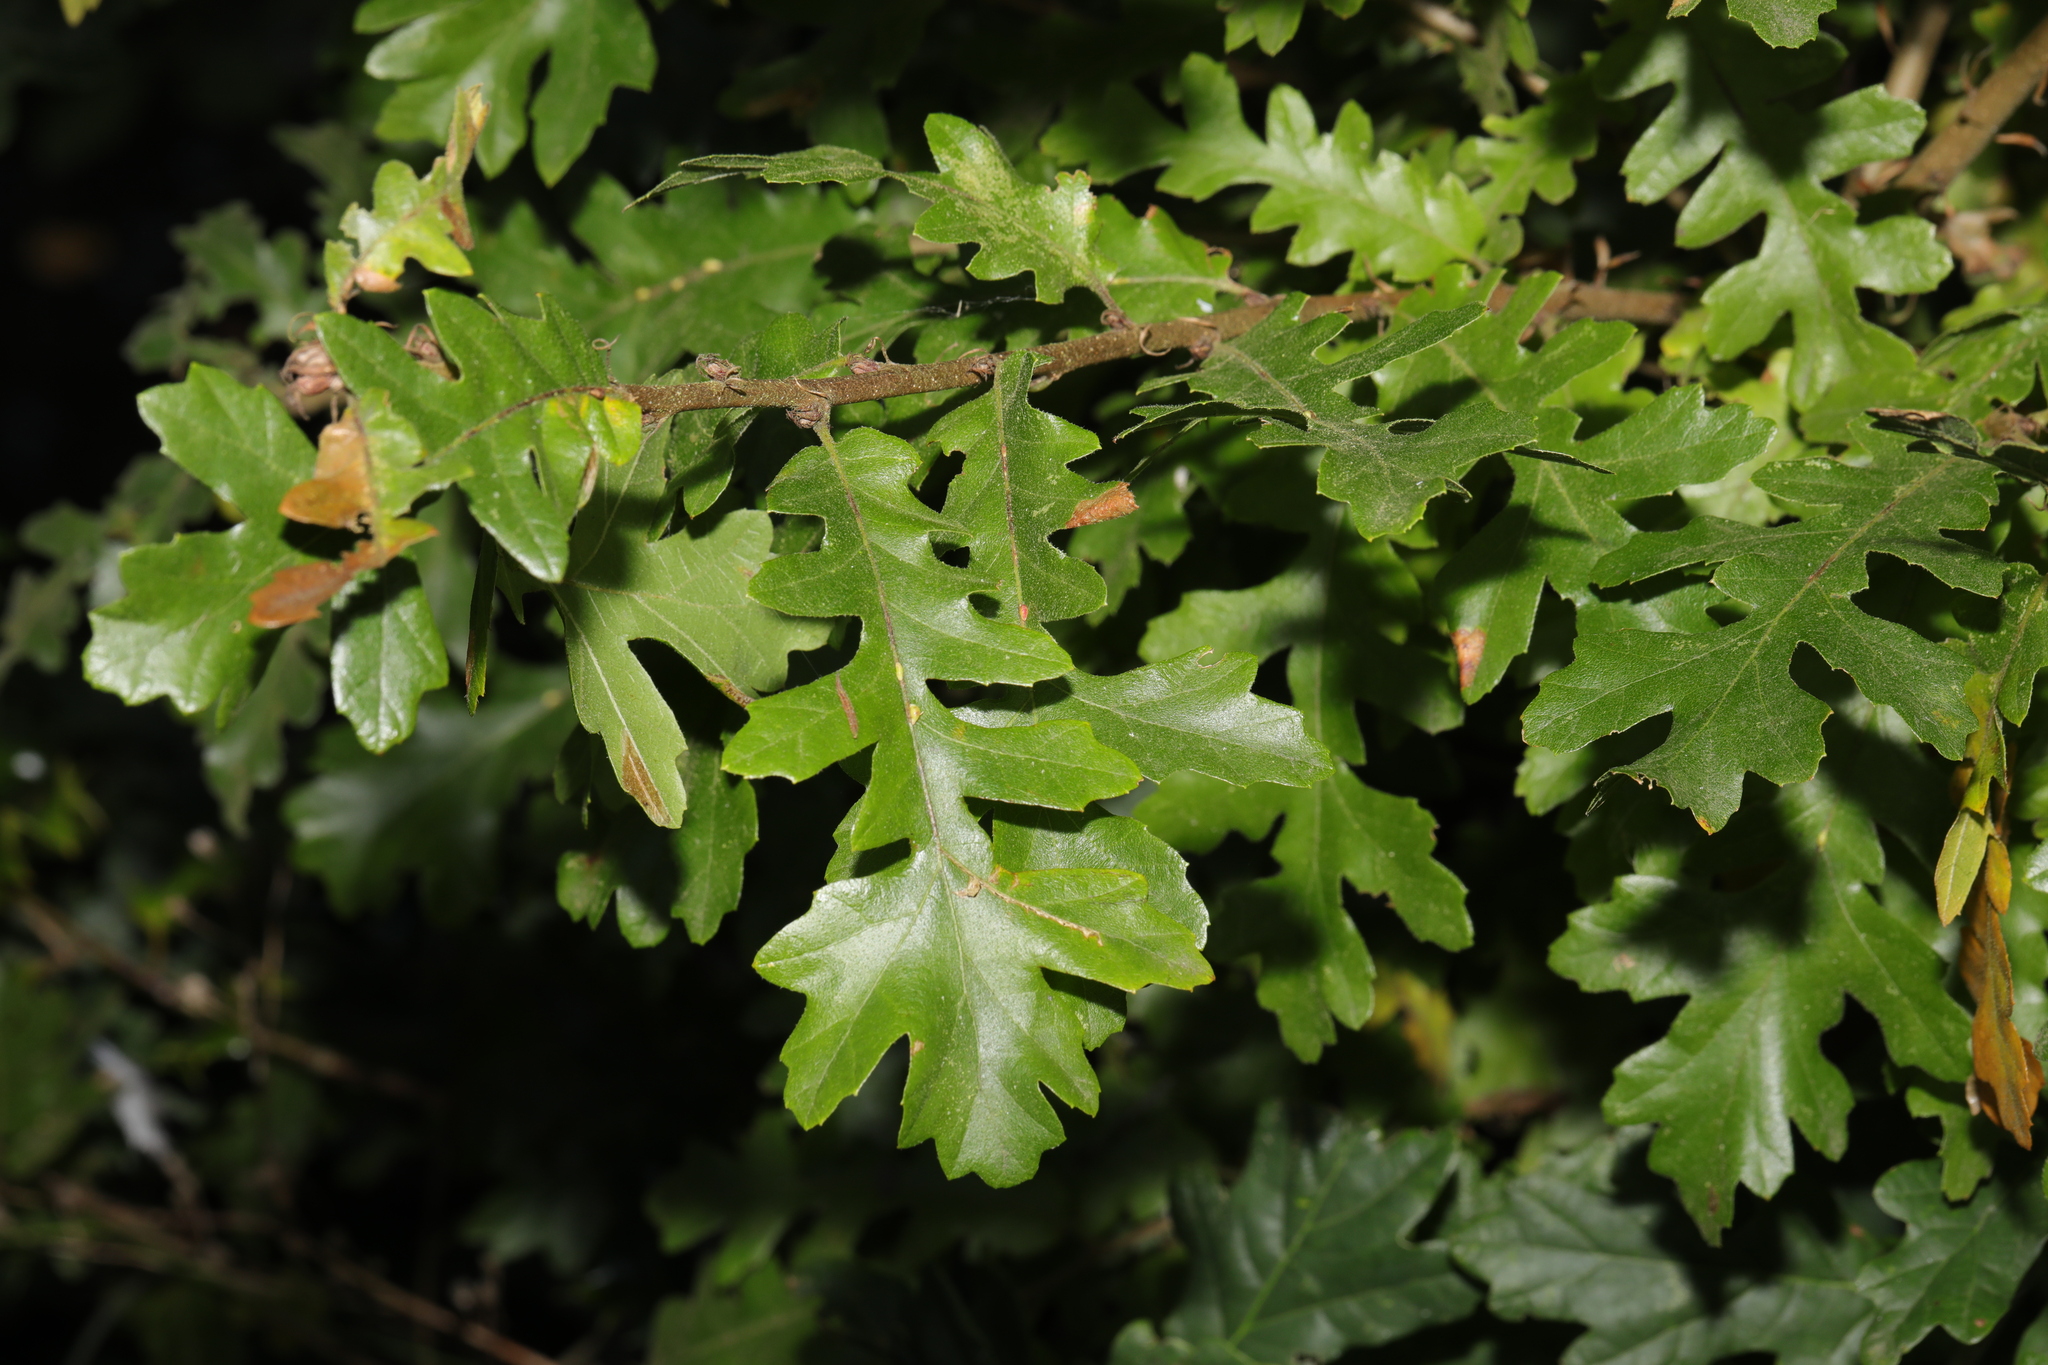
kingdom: Plantae
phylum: Tracheophyta
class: Magnoliopsida
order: Fagales
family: Fagaceae
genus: Quercus
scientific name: Quercus cerris
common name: Turkey oak
